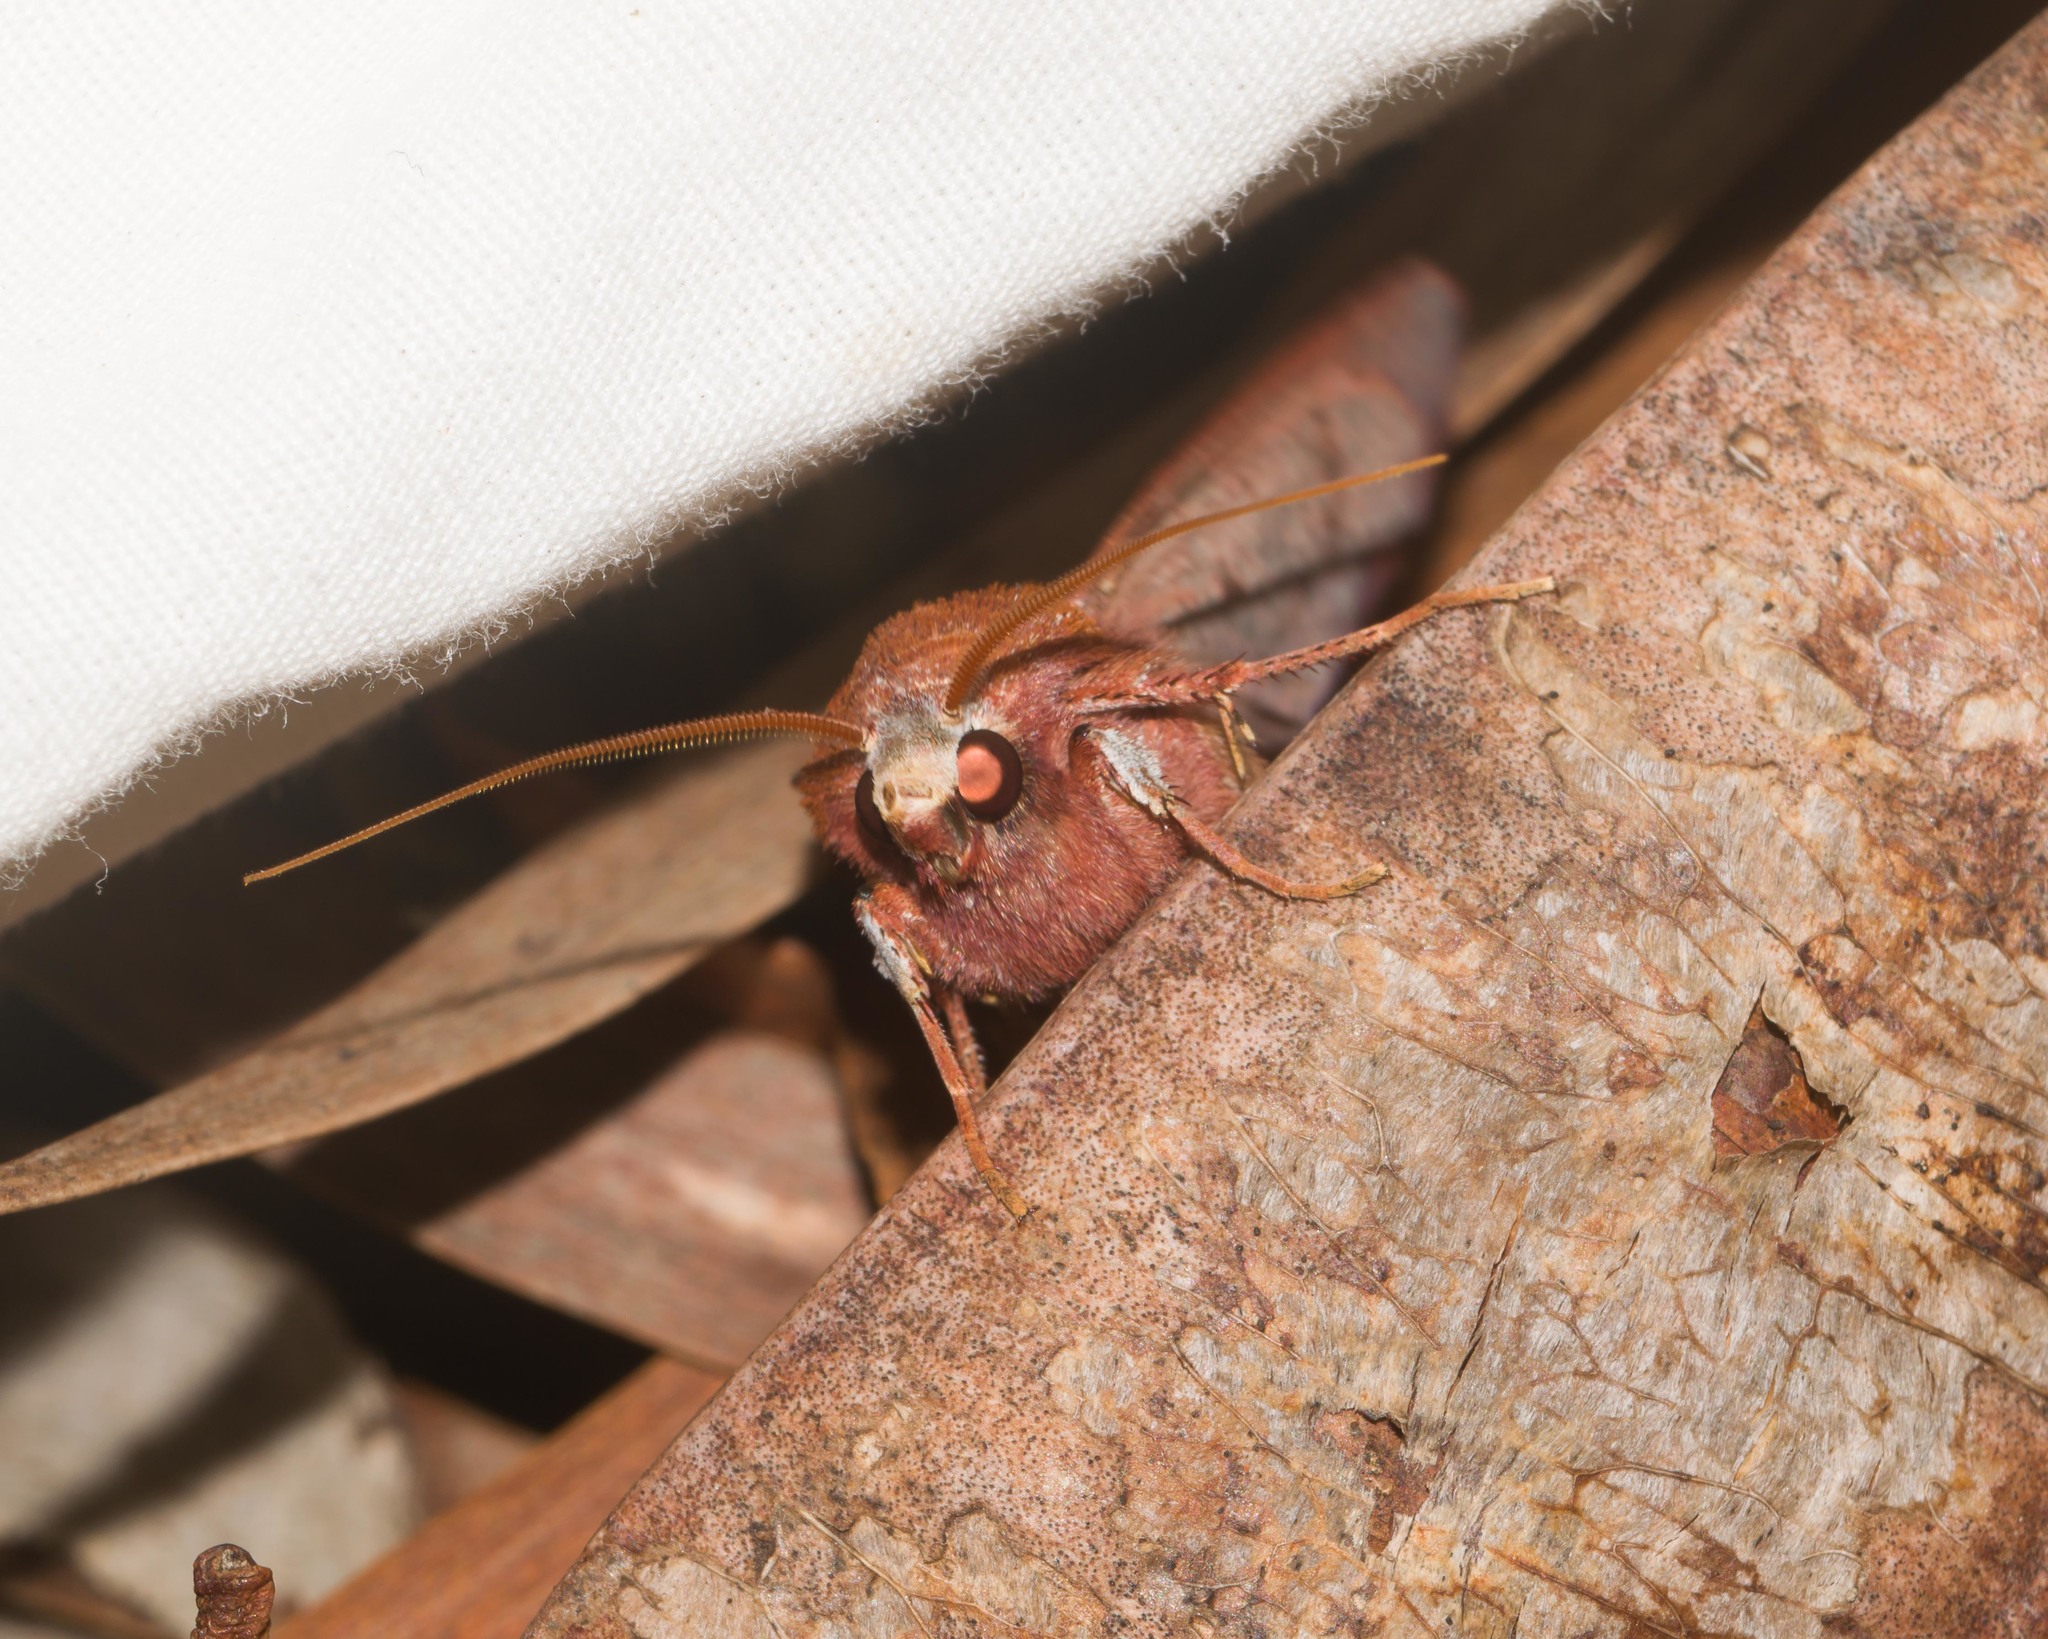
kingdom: Animalia
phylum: Arthropoda
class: Insecta
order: Lepidoptera
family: Noctuidae
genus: Agrotis
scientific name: Agrotis hephaestaea
